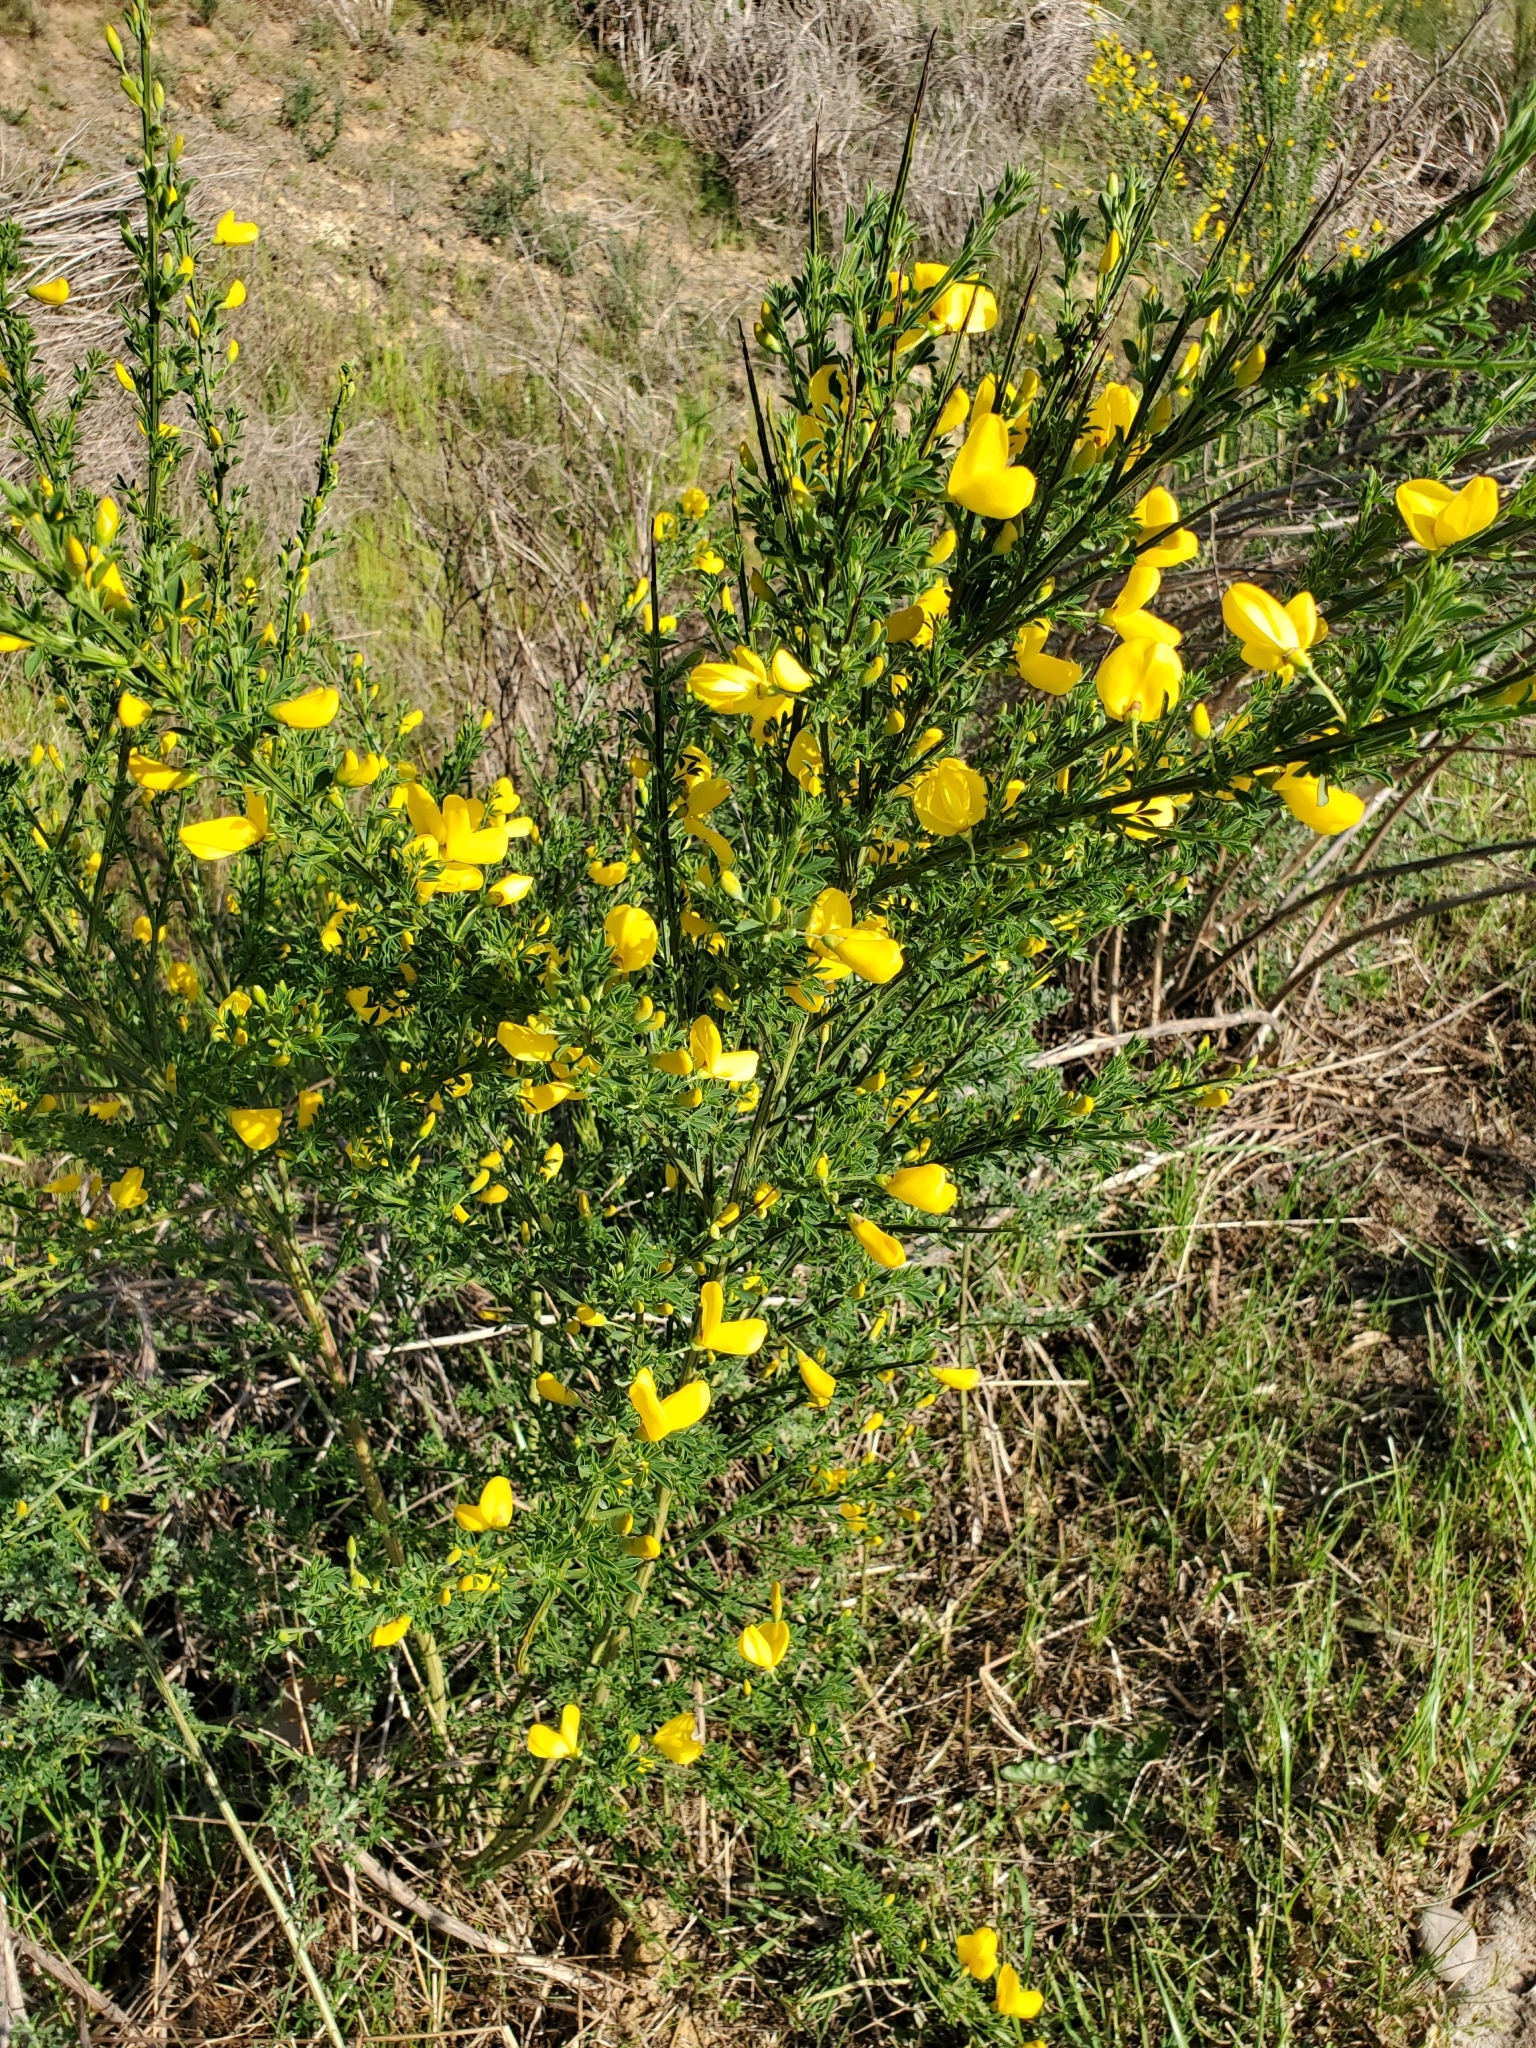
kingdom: Plantae
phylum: Tracheophyta
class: Magnoliopsida
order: Fabales
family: Fabaceae
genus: Cytisus
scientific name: Cytisus scoparius
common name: Scotch broom
